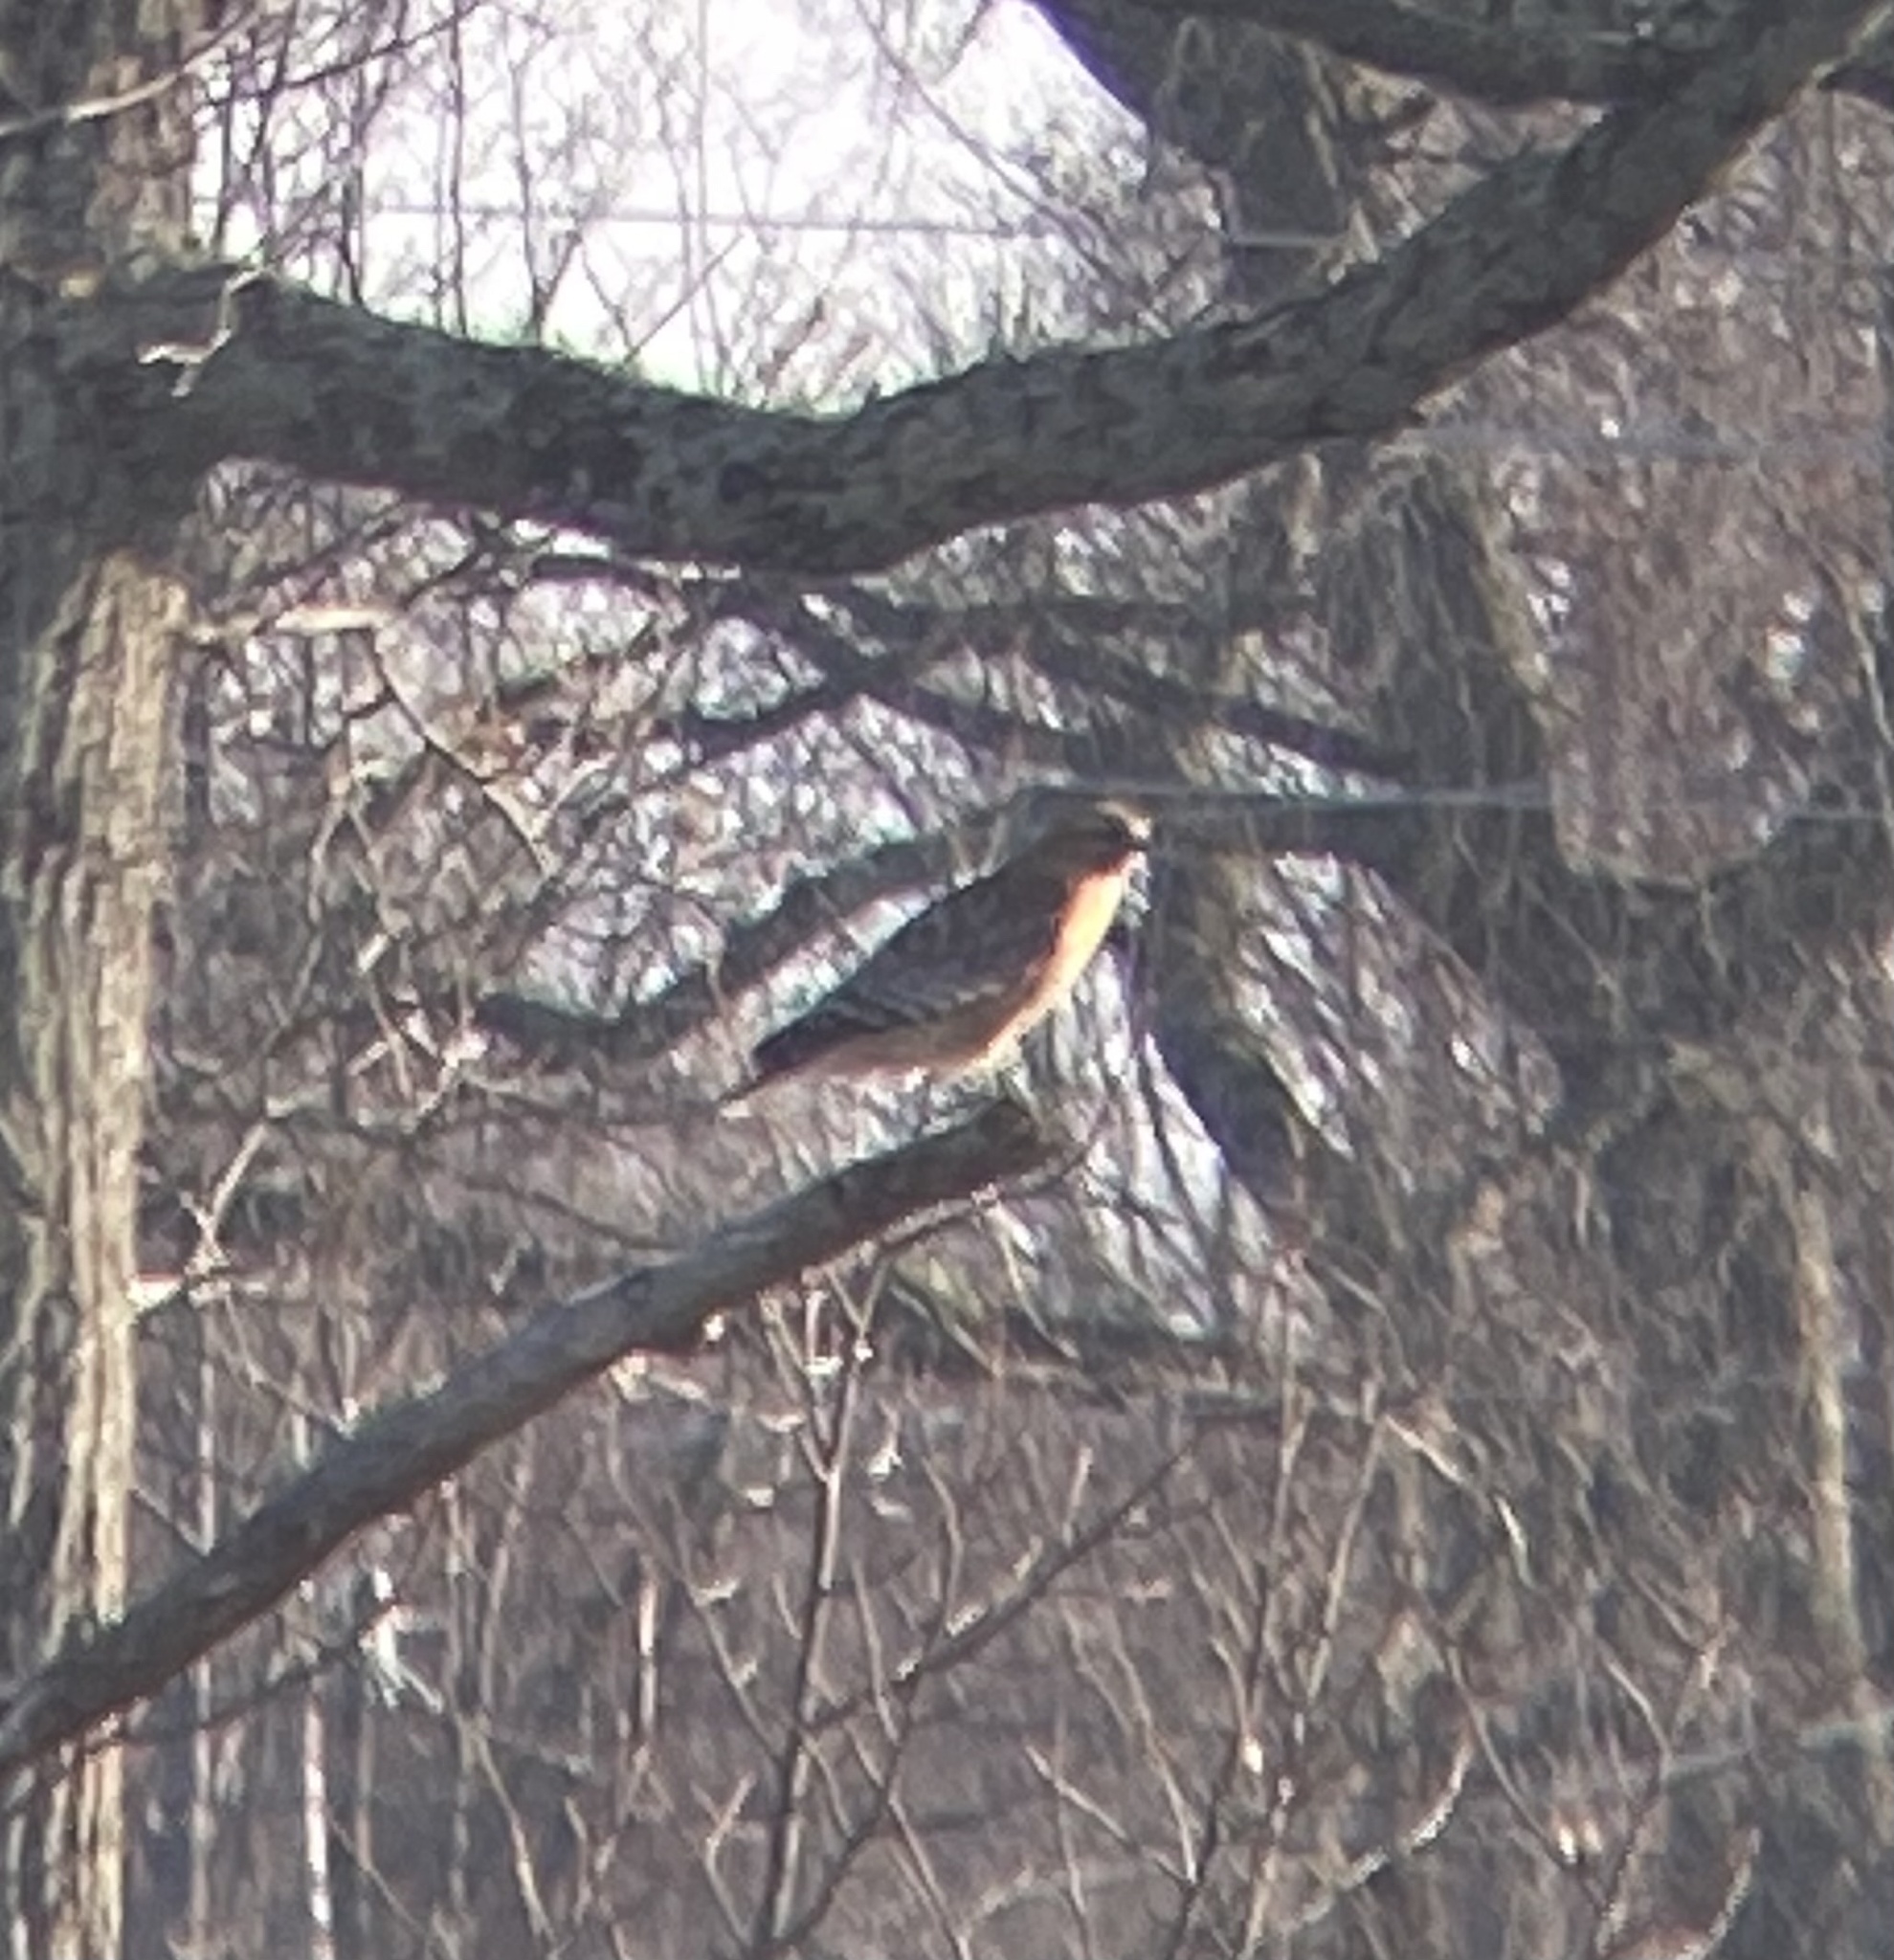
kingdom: Animalia
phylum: Chordata
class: Aves
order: Accipitriformes
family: Accipitridae
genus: Buteo
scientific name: Buteo lineatus
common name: Red-shouldered hawk
